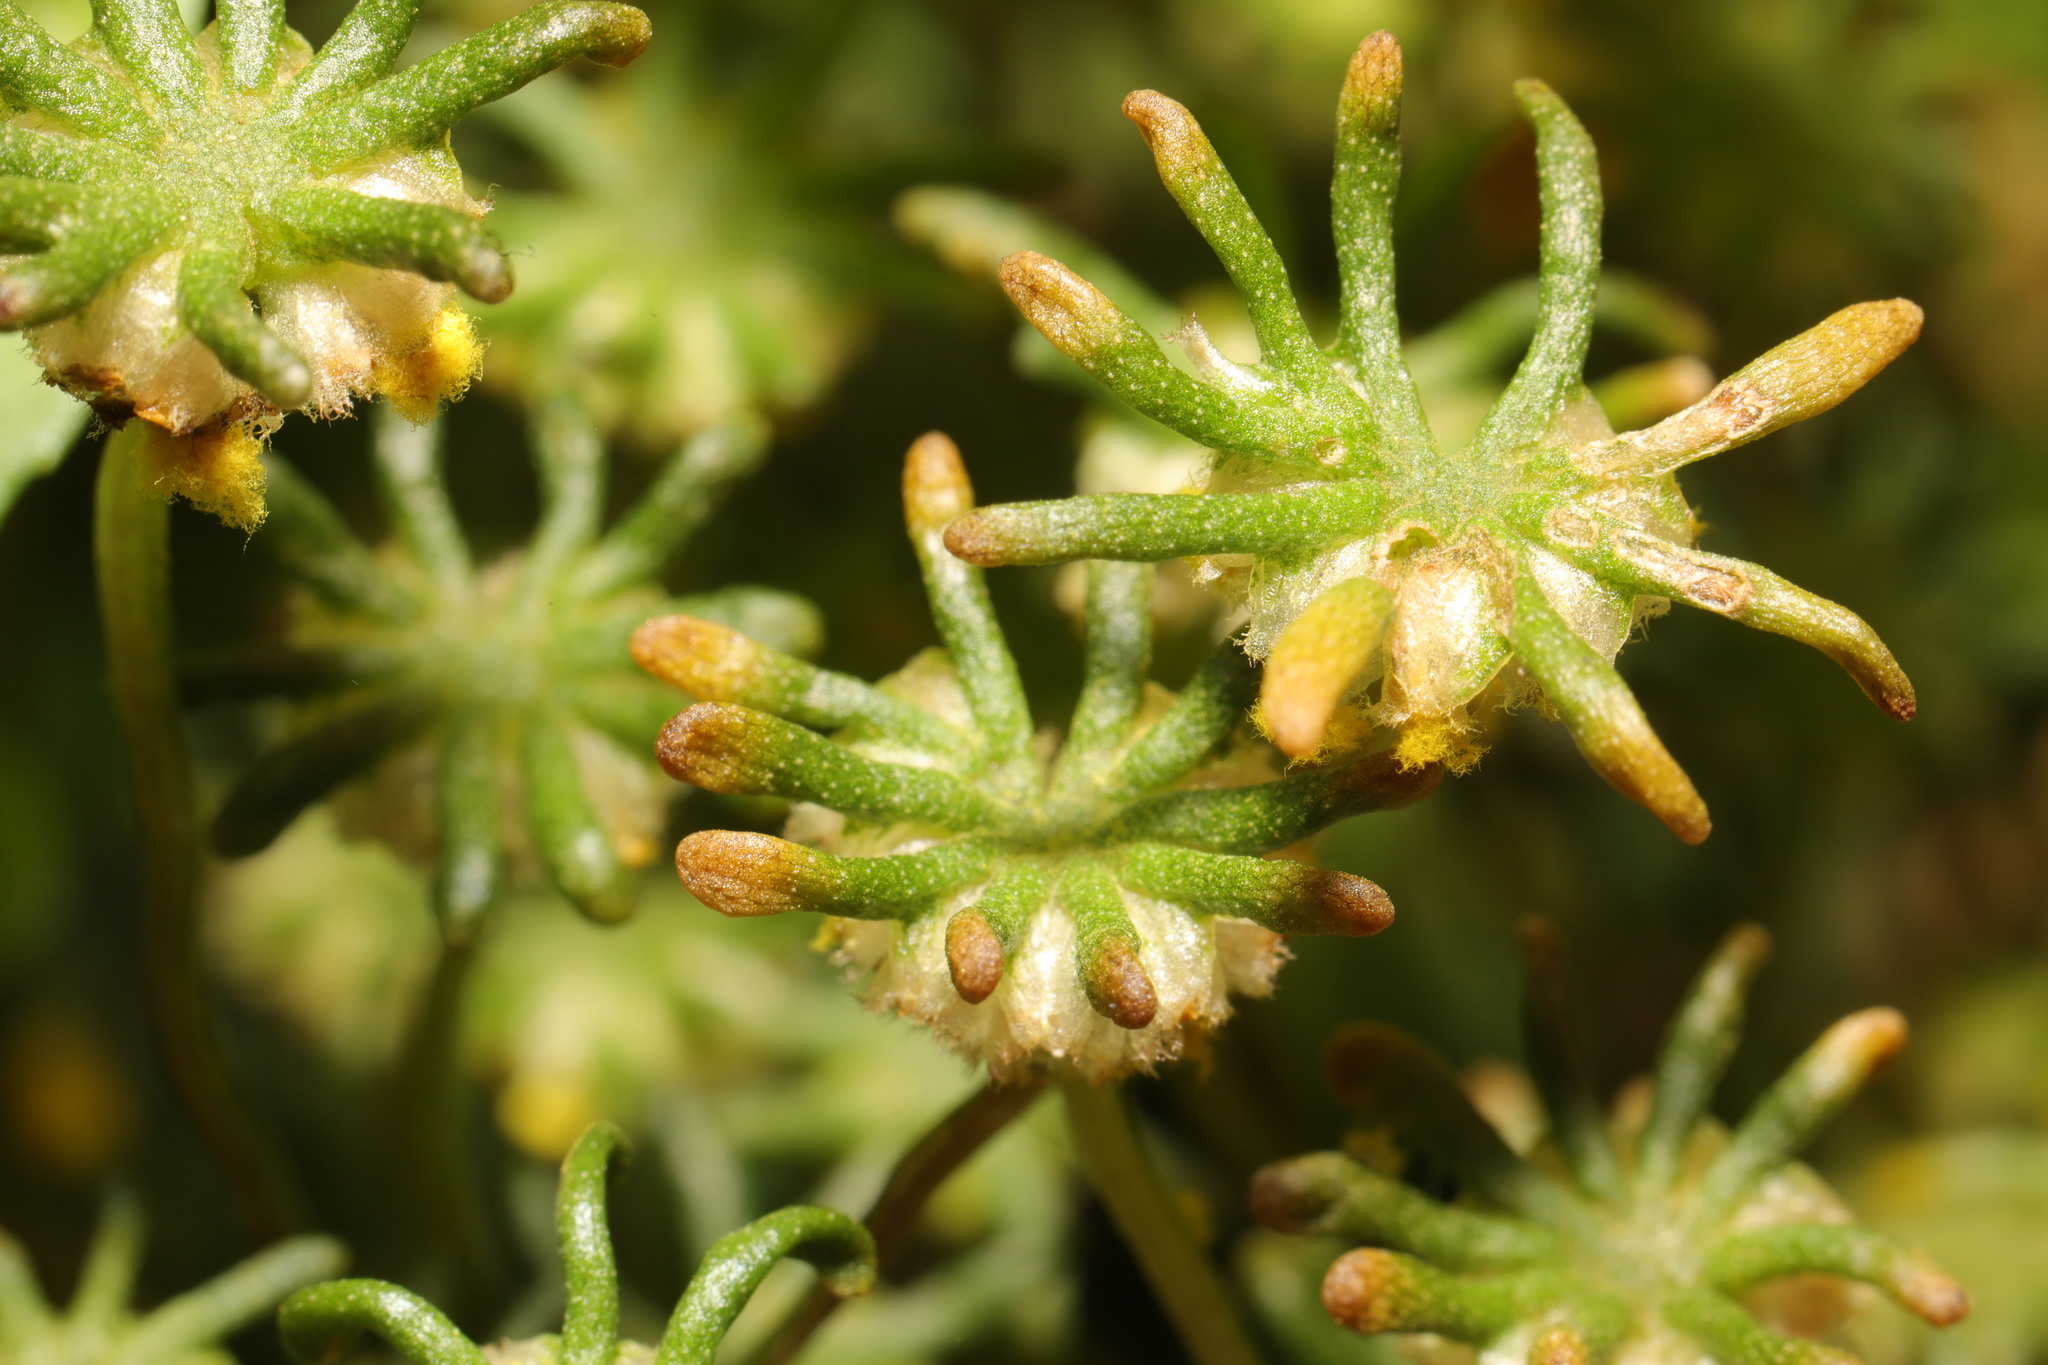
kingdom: Plantae
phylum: Marchantiophyta
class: Marchantiopsida
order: Marchantiales
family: Marchantiaceae
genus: Marchantia
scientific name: Marchantia polymorpha
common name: Common liverwort
